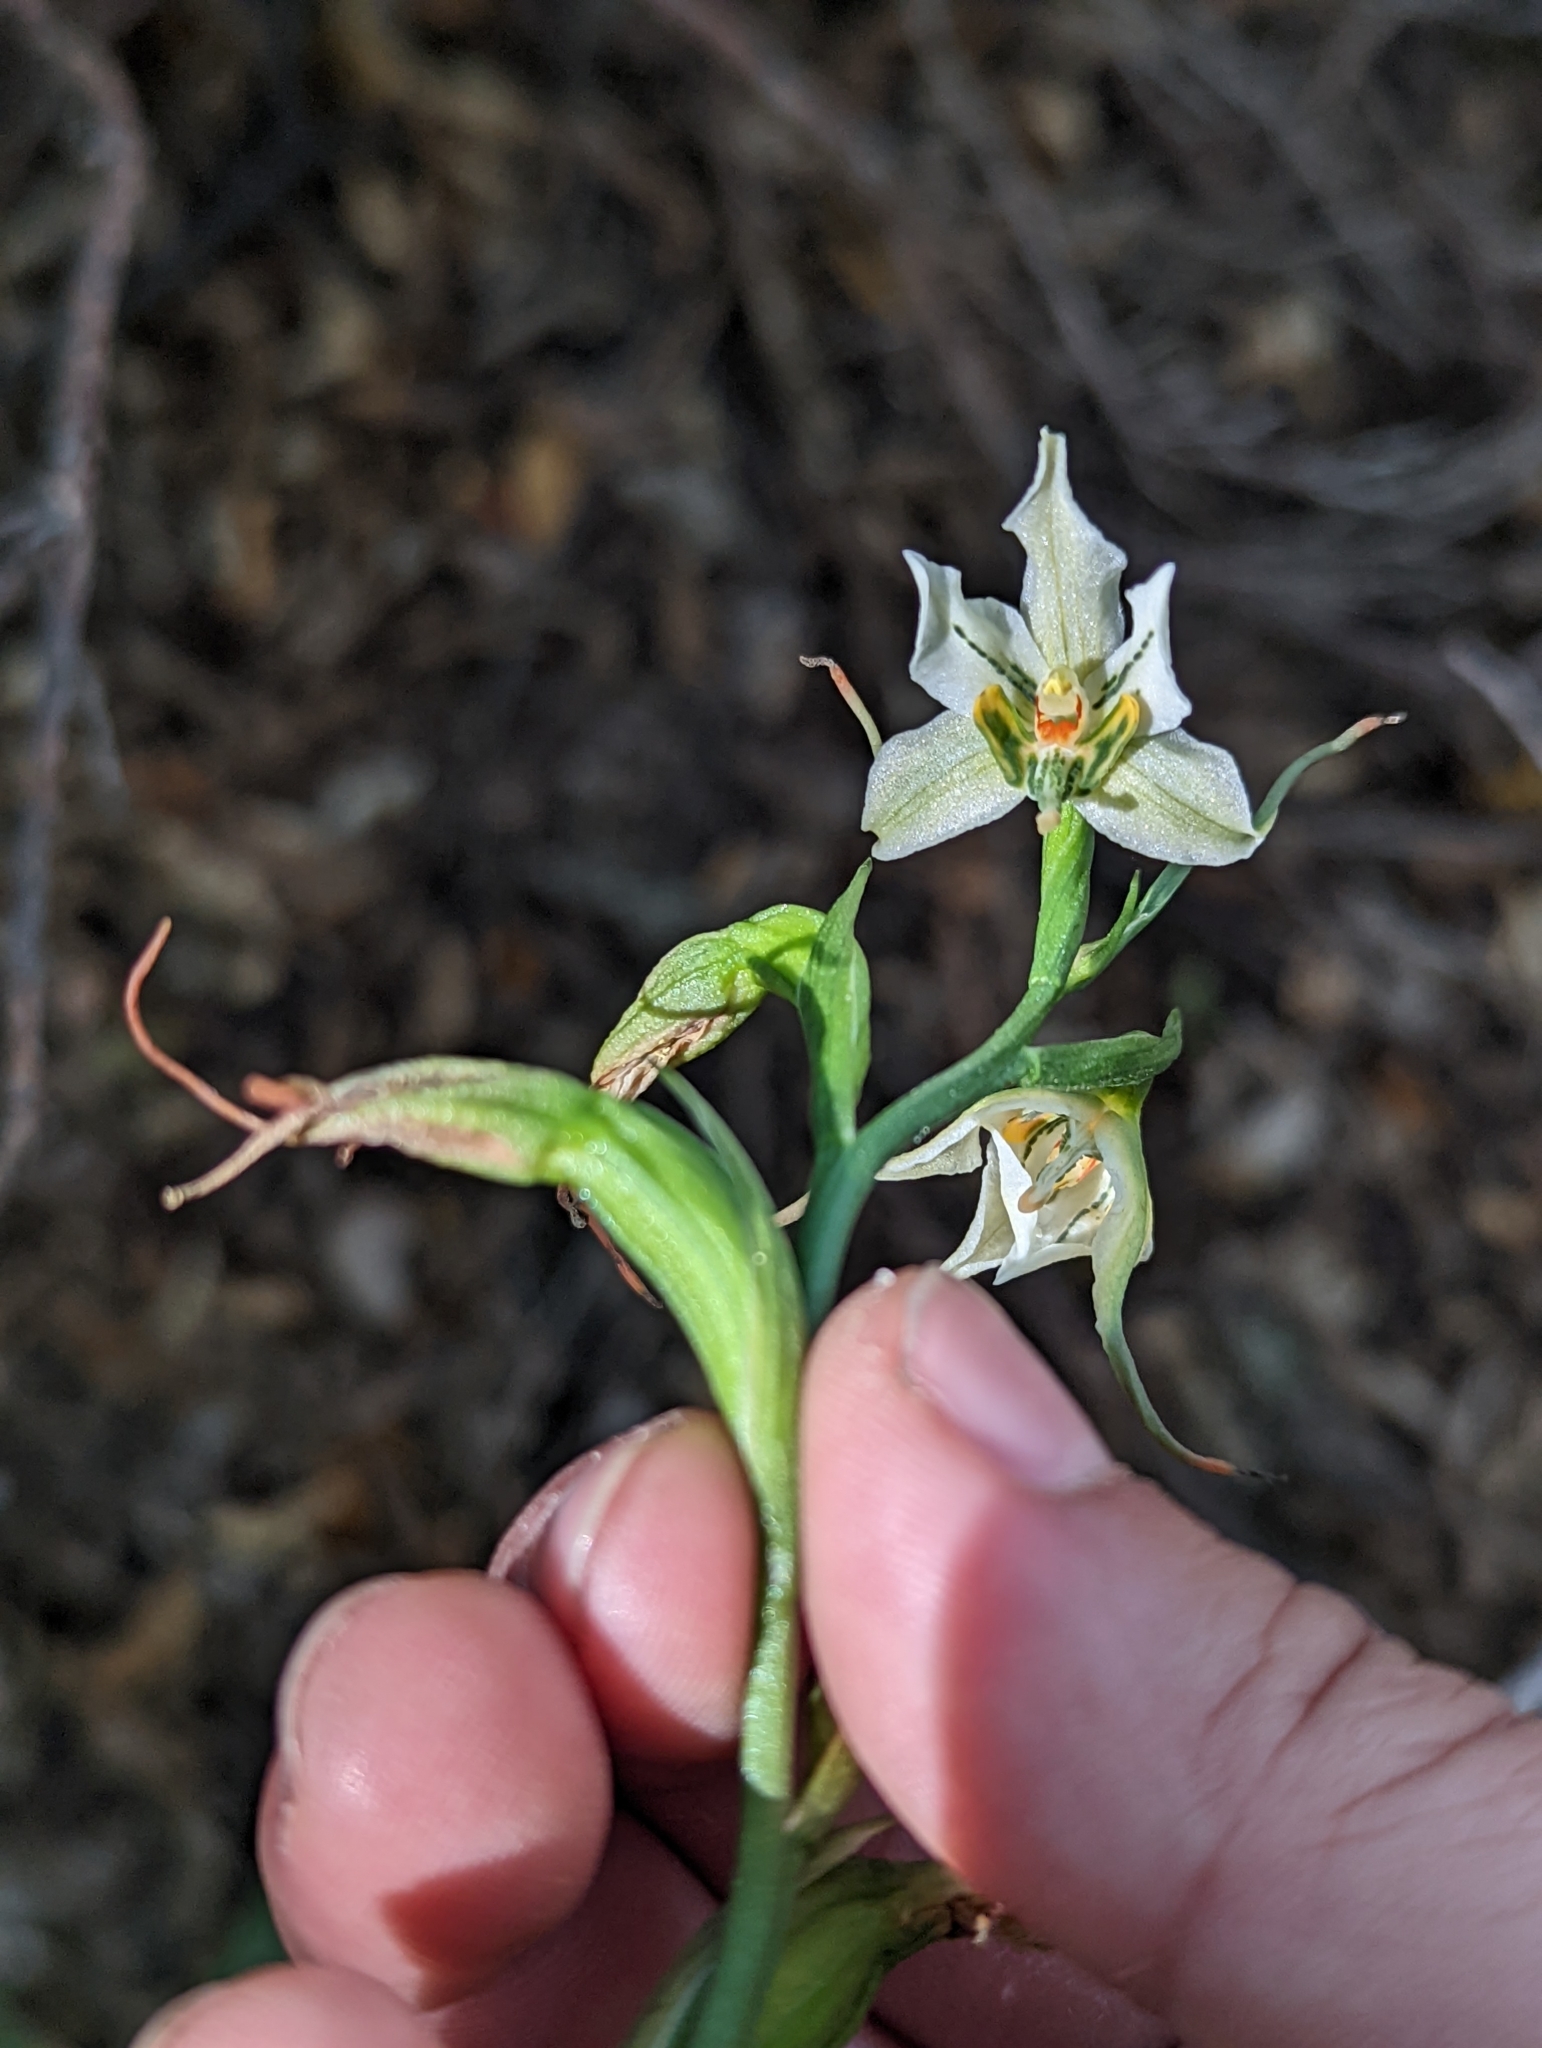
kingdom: Plantae
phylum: Tracheophyta
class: Liliopsida
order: Asparagales
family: Orchidaceae
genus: Gavilea
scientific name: Gavilea araucana
